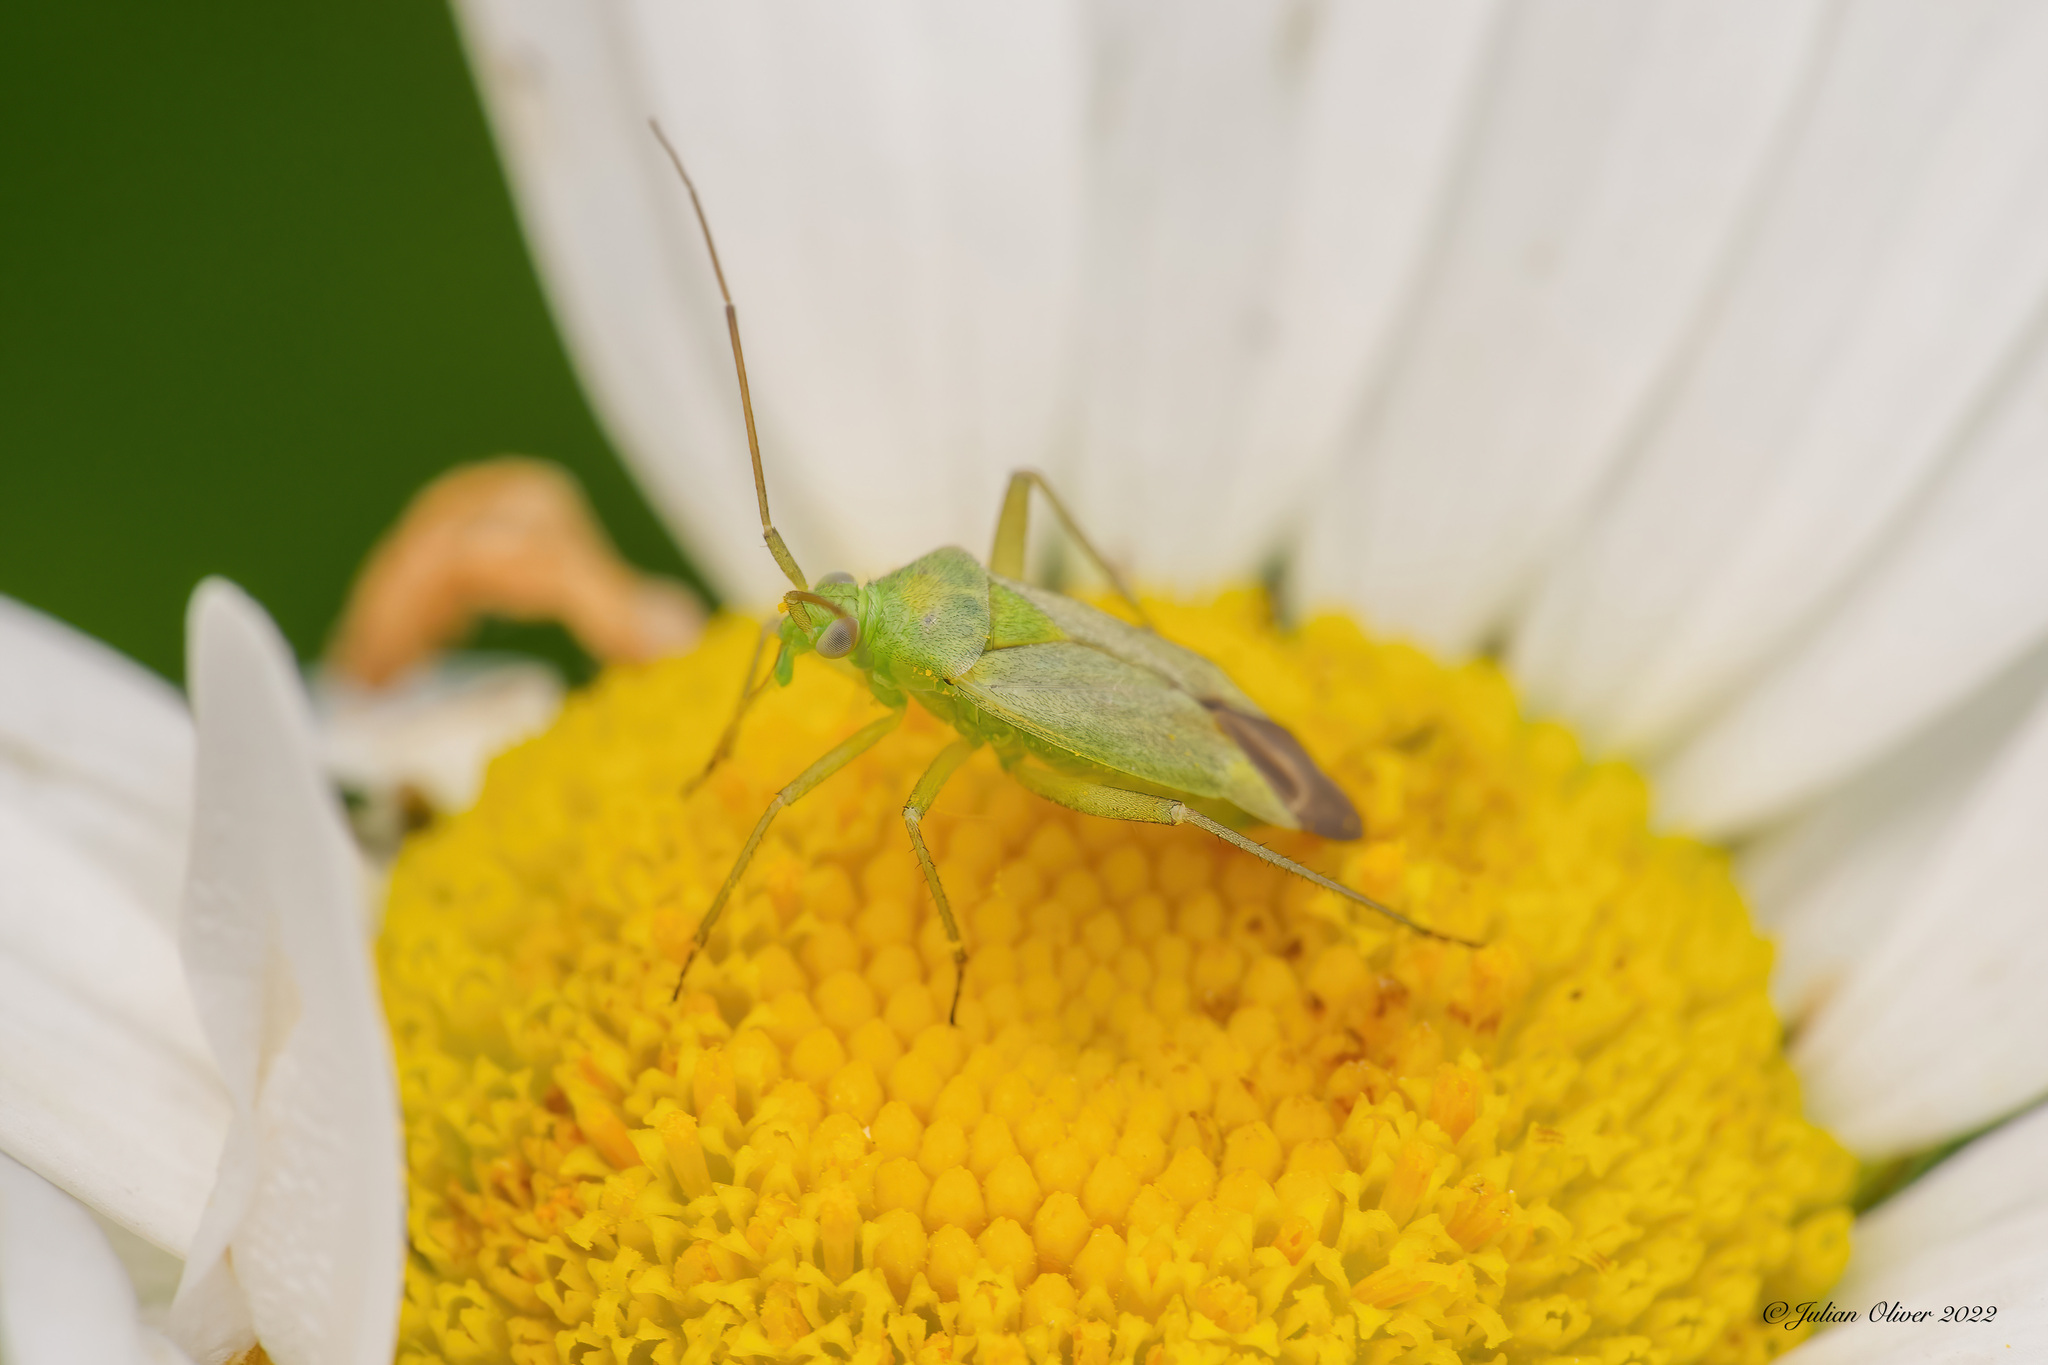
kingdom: Animalia
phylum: Arthropoda
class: Insecta
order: Hemiptera
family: Miridae
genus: Closterotomus
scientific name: Closterotomus norvegicus
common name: Plant bug
